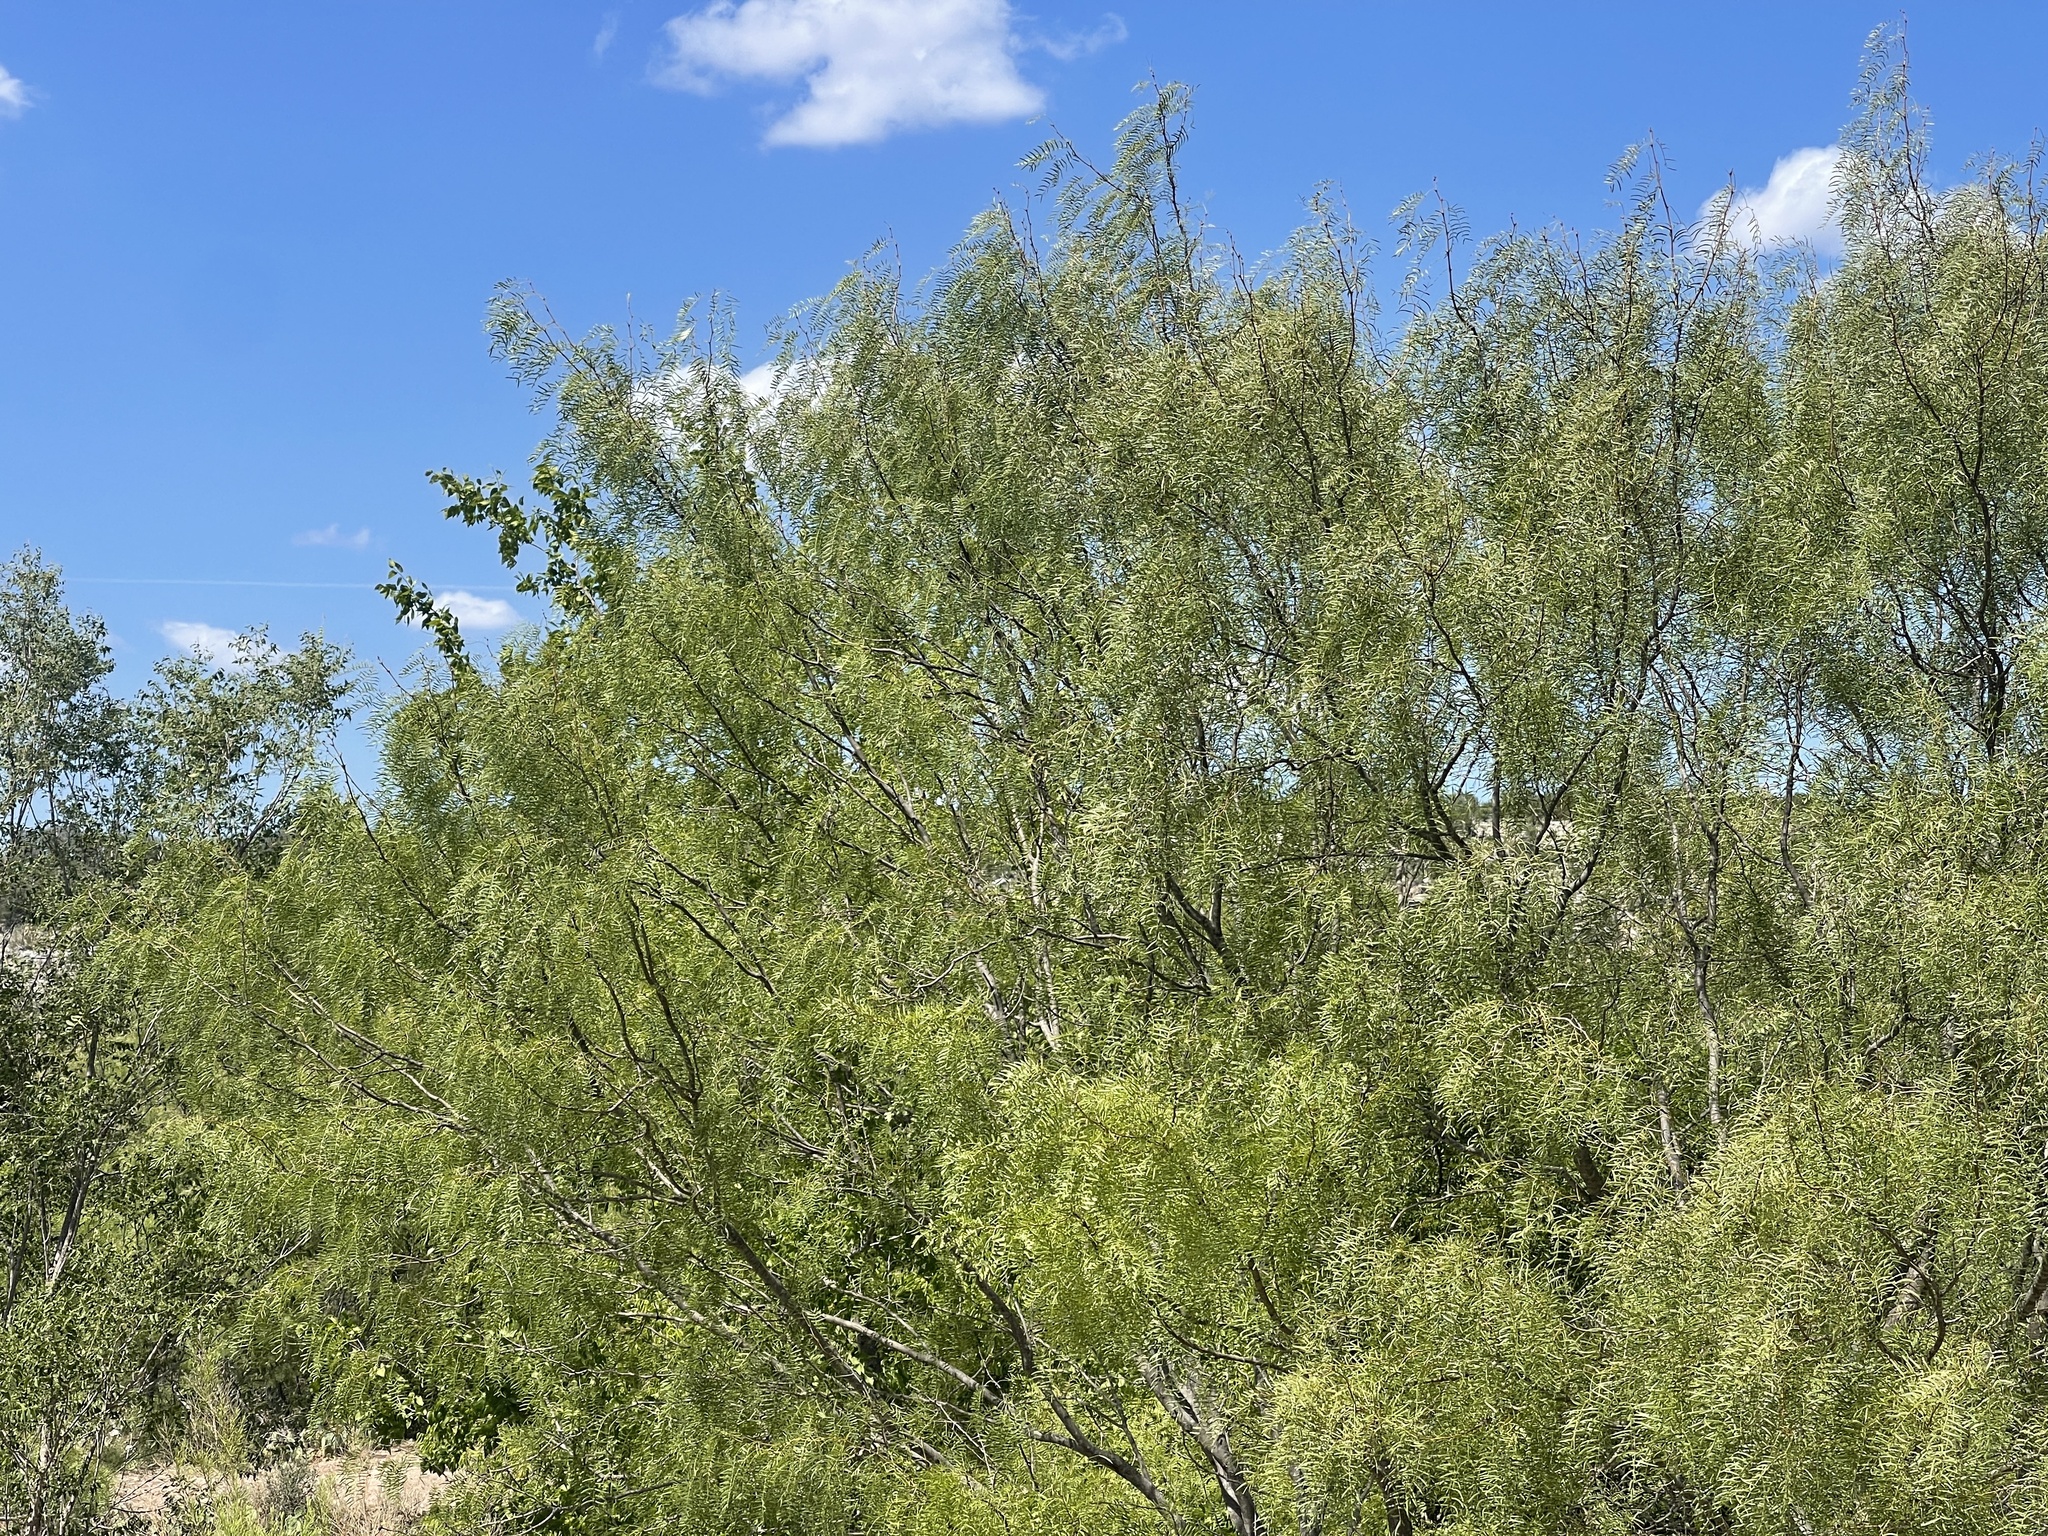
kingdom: Plantae
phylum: Tracheophyta
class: Magnoliopsida
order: Fabales
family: Fabaceae
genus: Prosopis
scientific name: Prosopis glandulosa
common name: Honey mesquite
